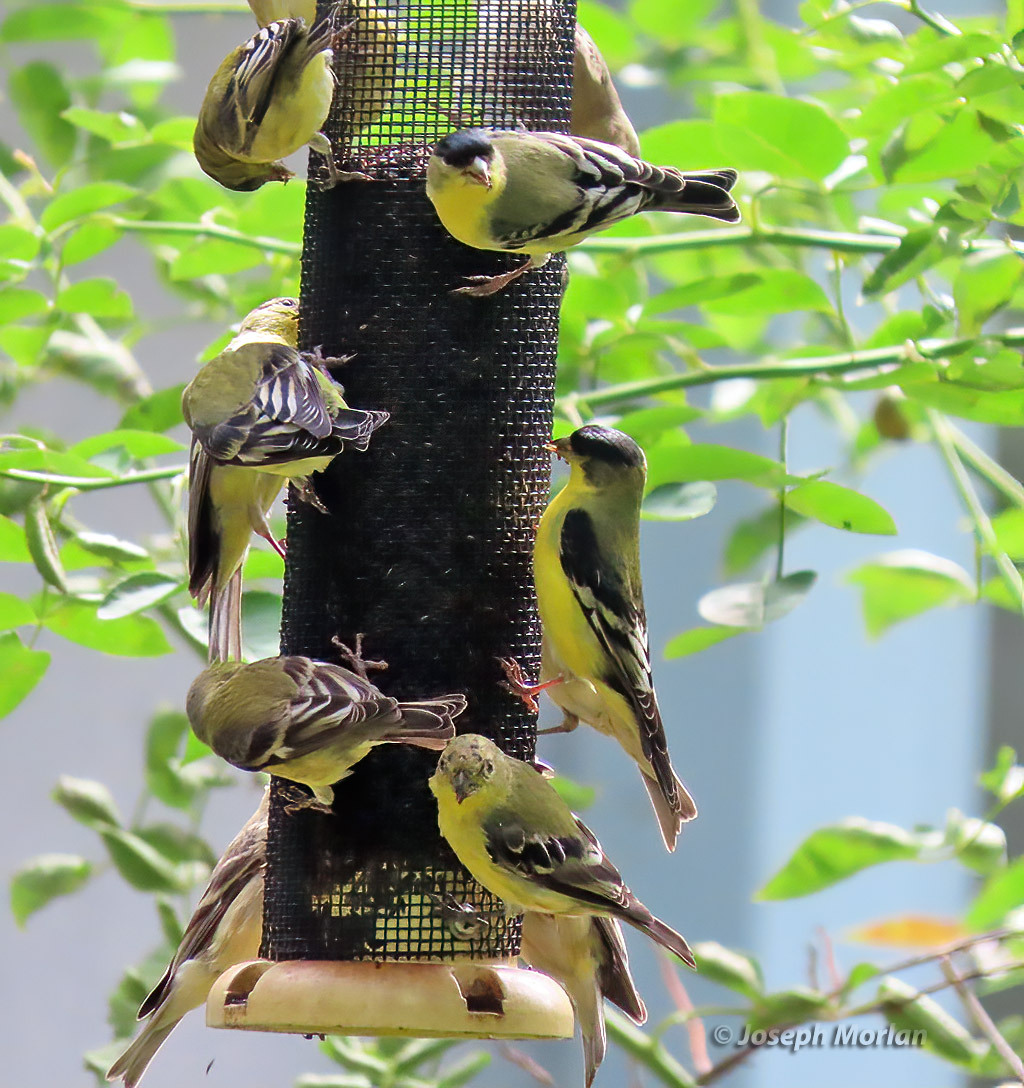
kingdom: Animalia
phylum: Chordata
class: Aves
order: Passeriformes
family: Fringillidae
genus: Spinus
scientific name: Spinus psaltria
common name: Lesser goldfinch
